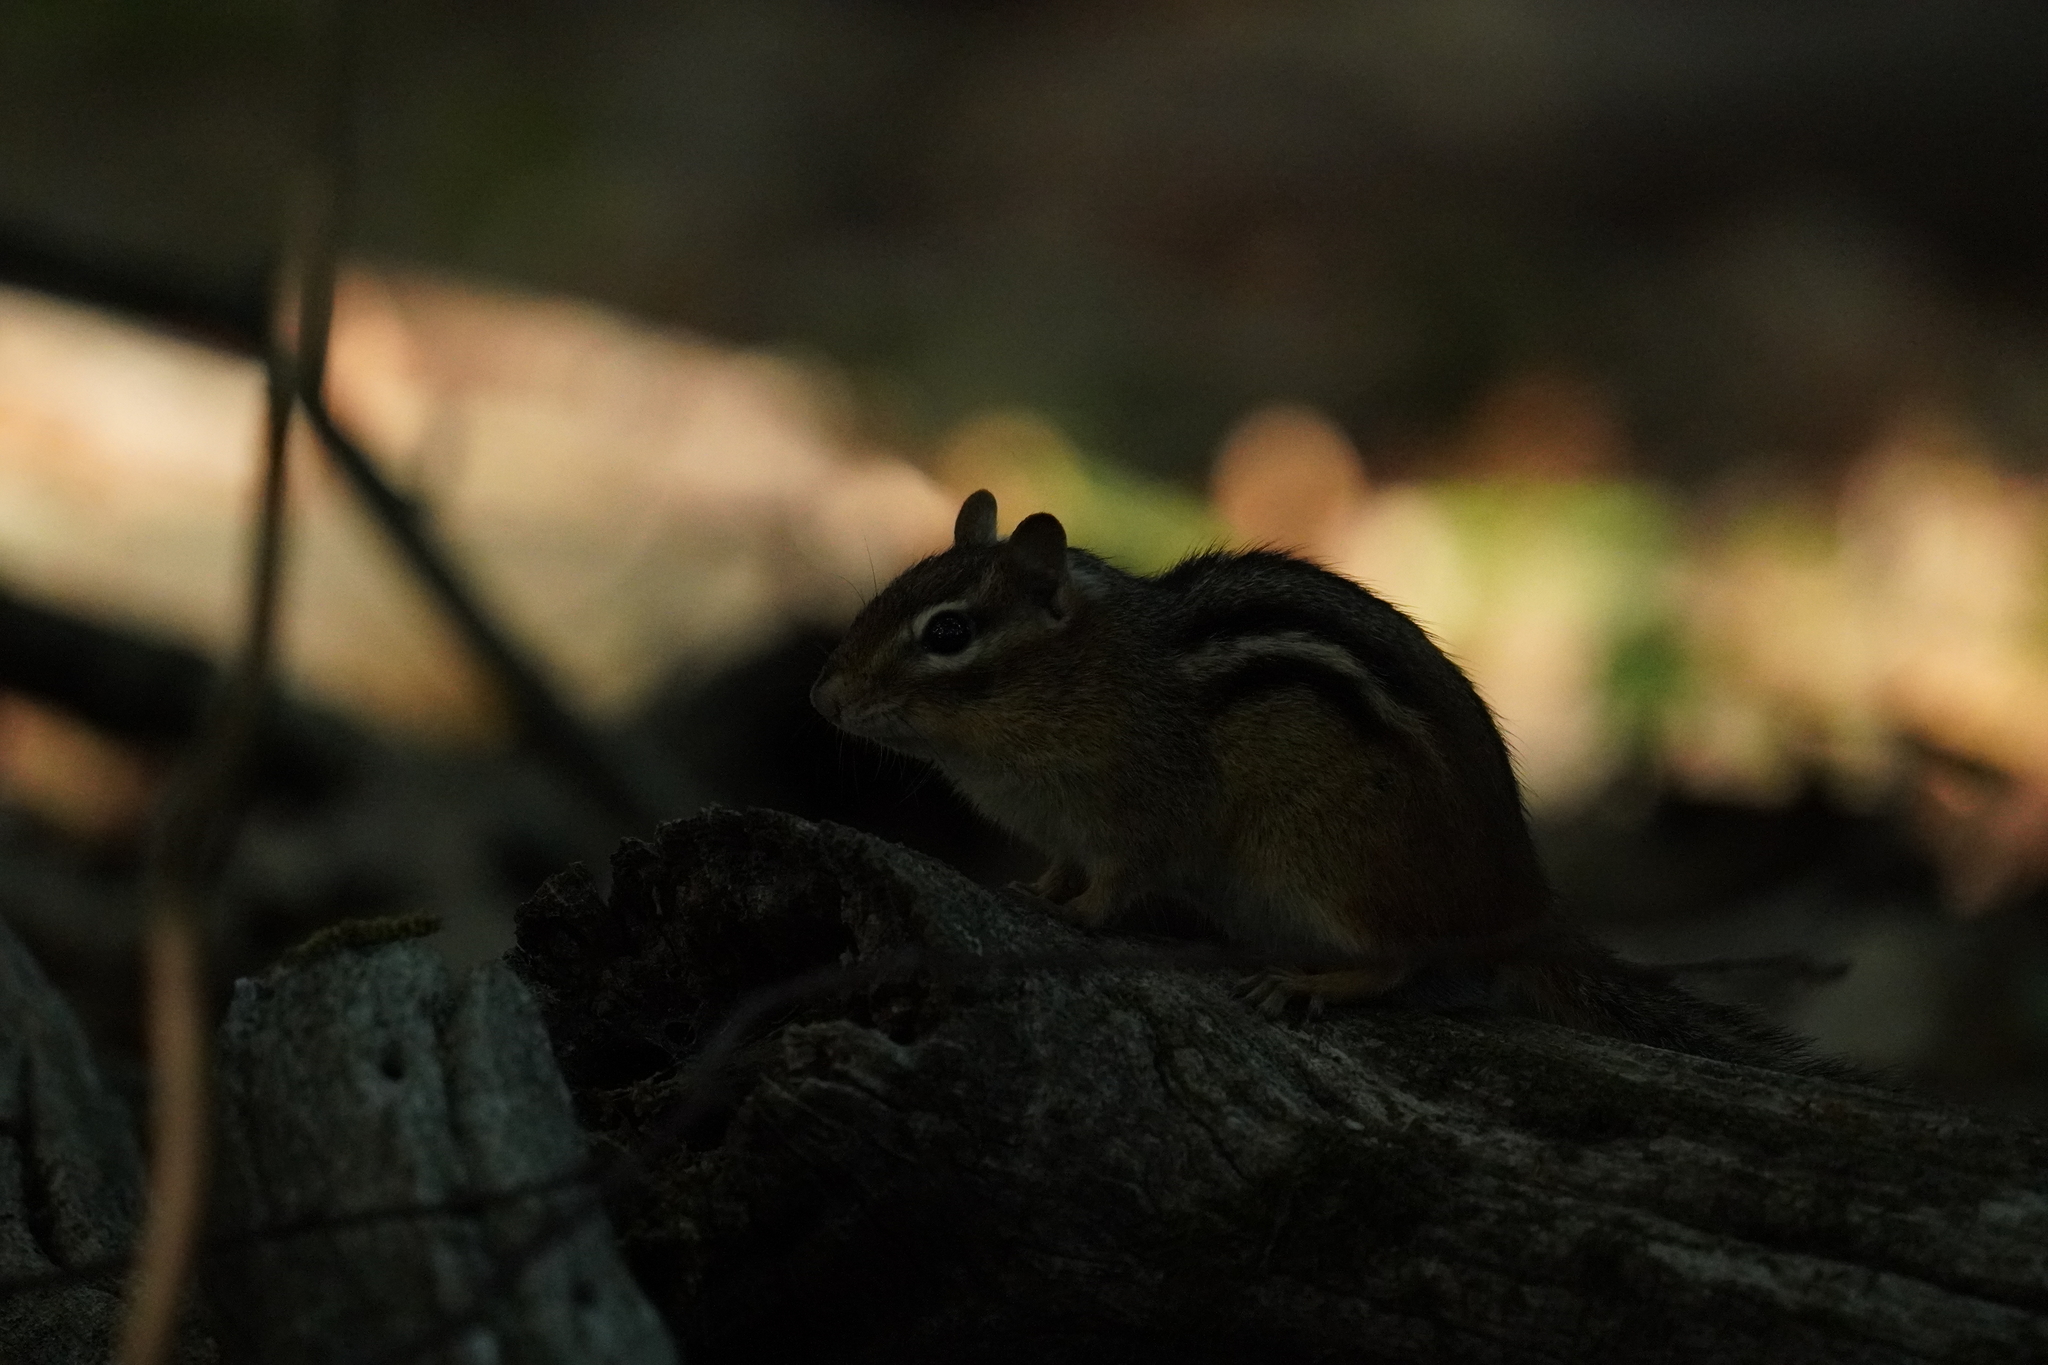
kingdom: Animalia
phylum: Chordata
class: Mammalia
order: Rodentia
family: Sciuridae
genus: Tamias
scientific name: Tamias striatus
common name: Eastern chipmunk
